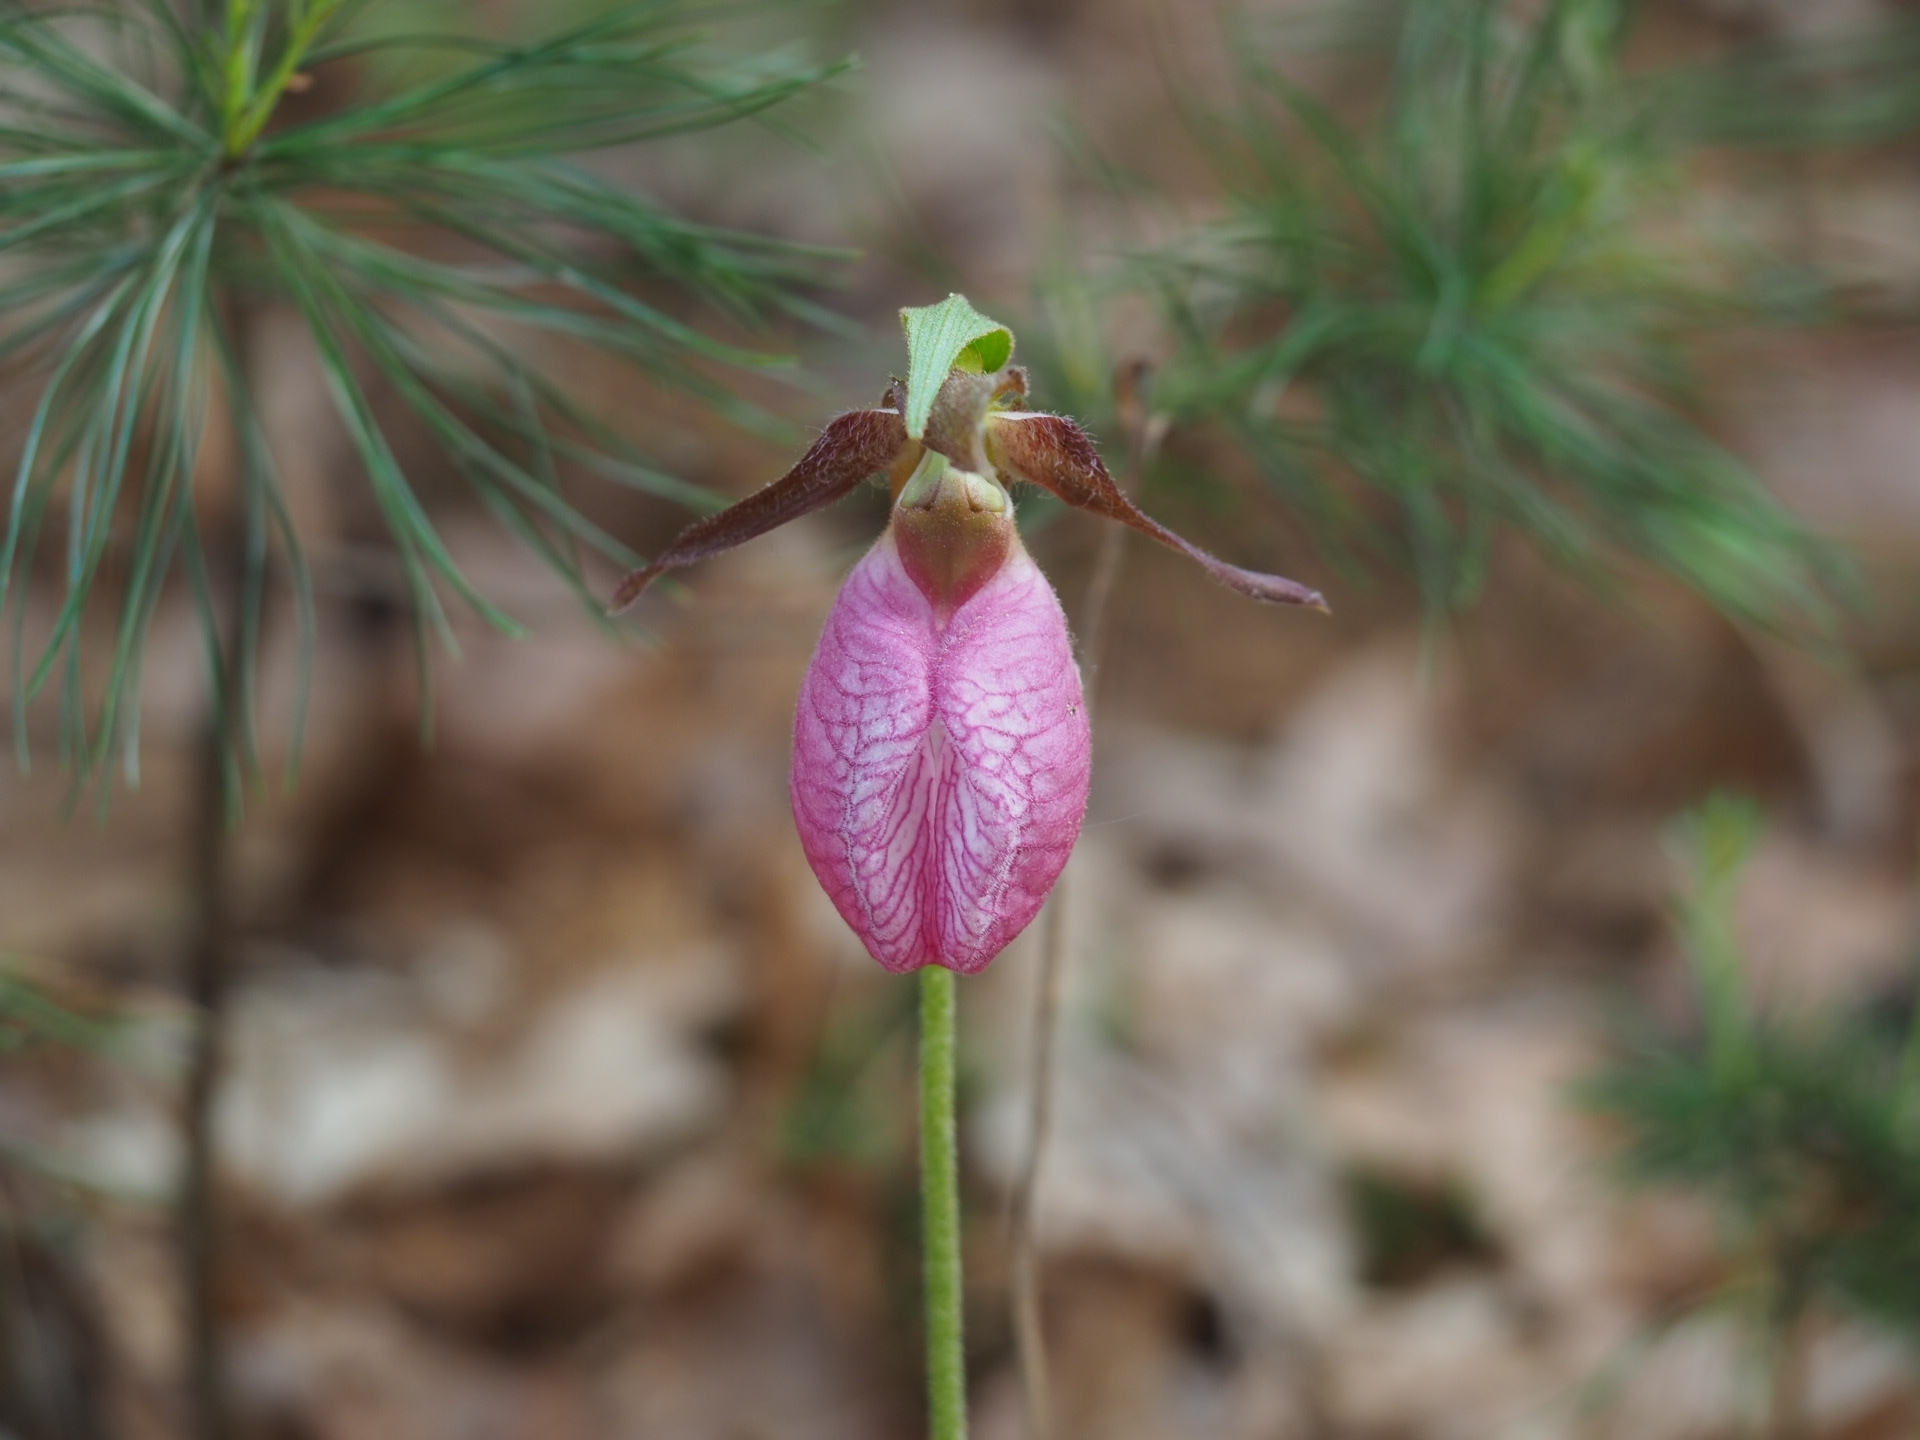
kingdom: Plantae
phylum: Tracheophyta
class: Liliopsida
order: Asparagales
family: Orchidaceae
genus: Cypripedium
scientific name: Cypripedium acaule
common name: Pink lady's-slipper
